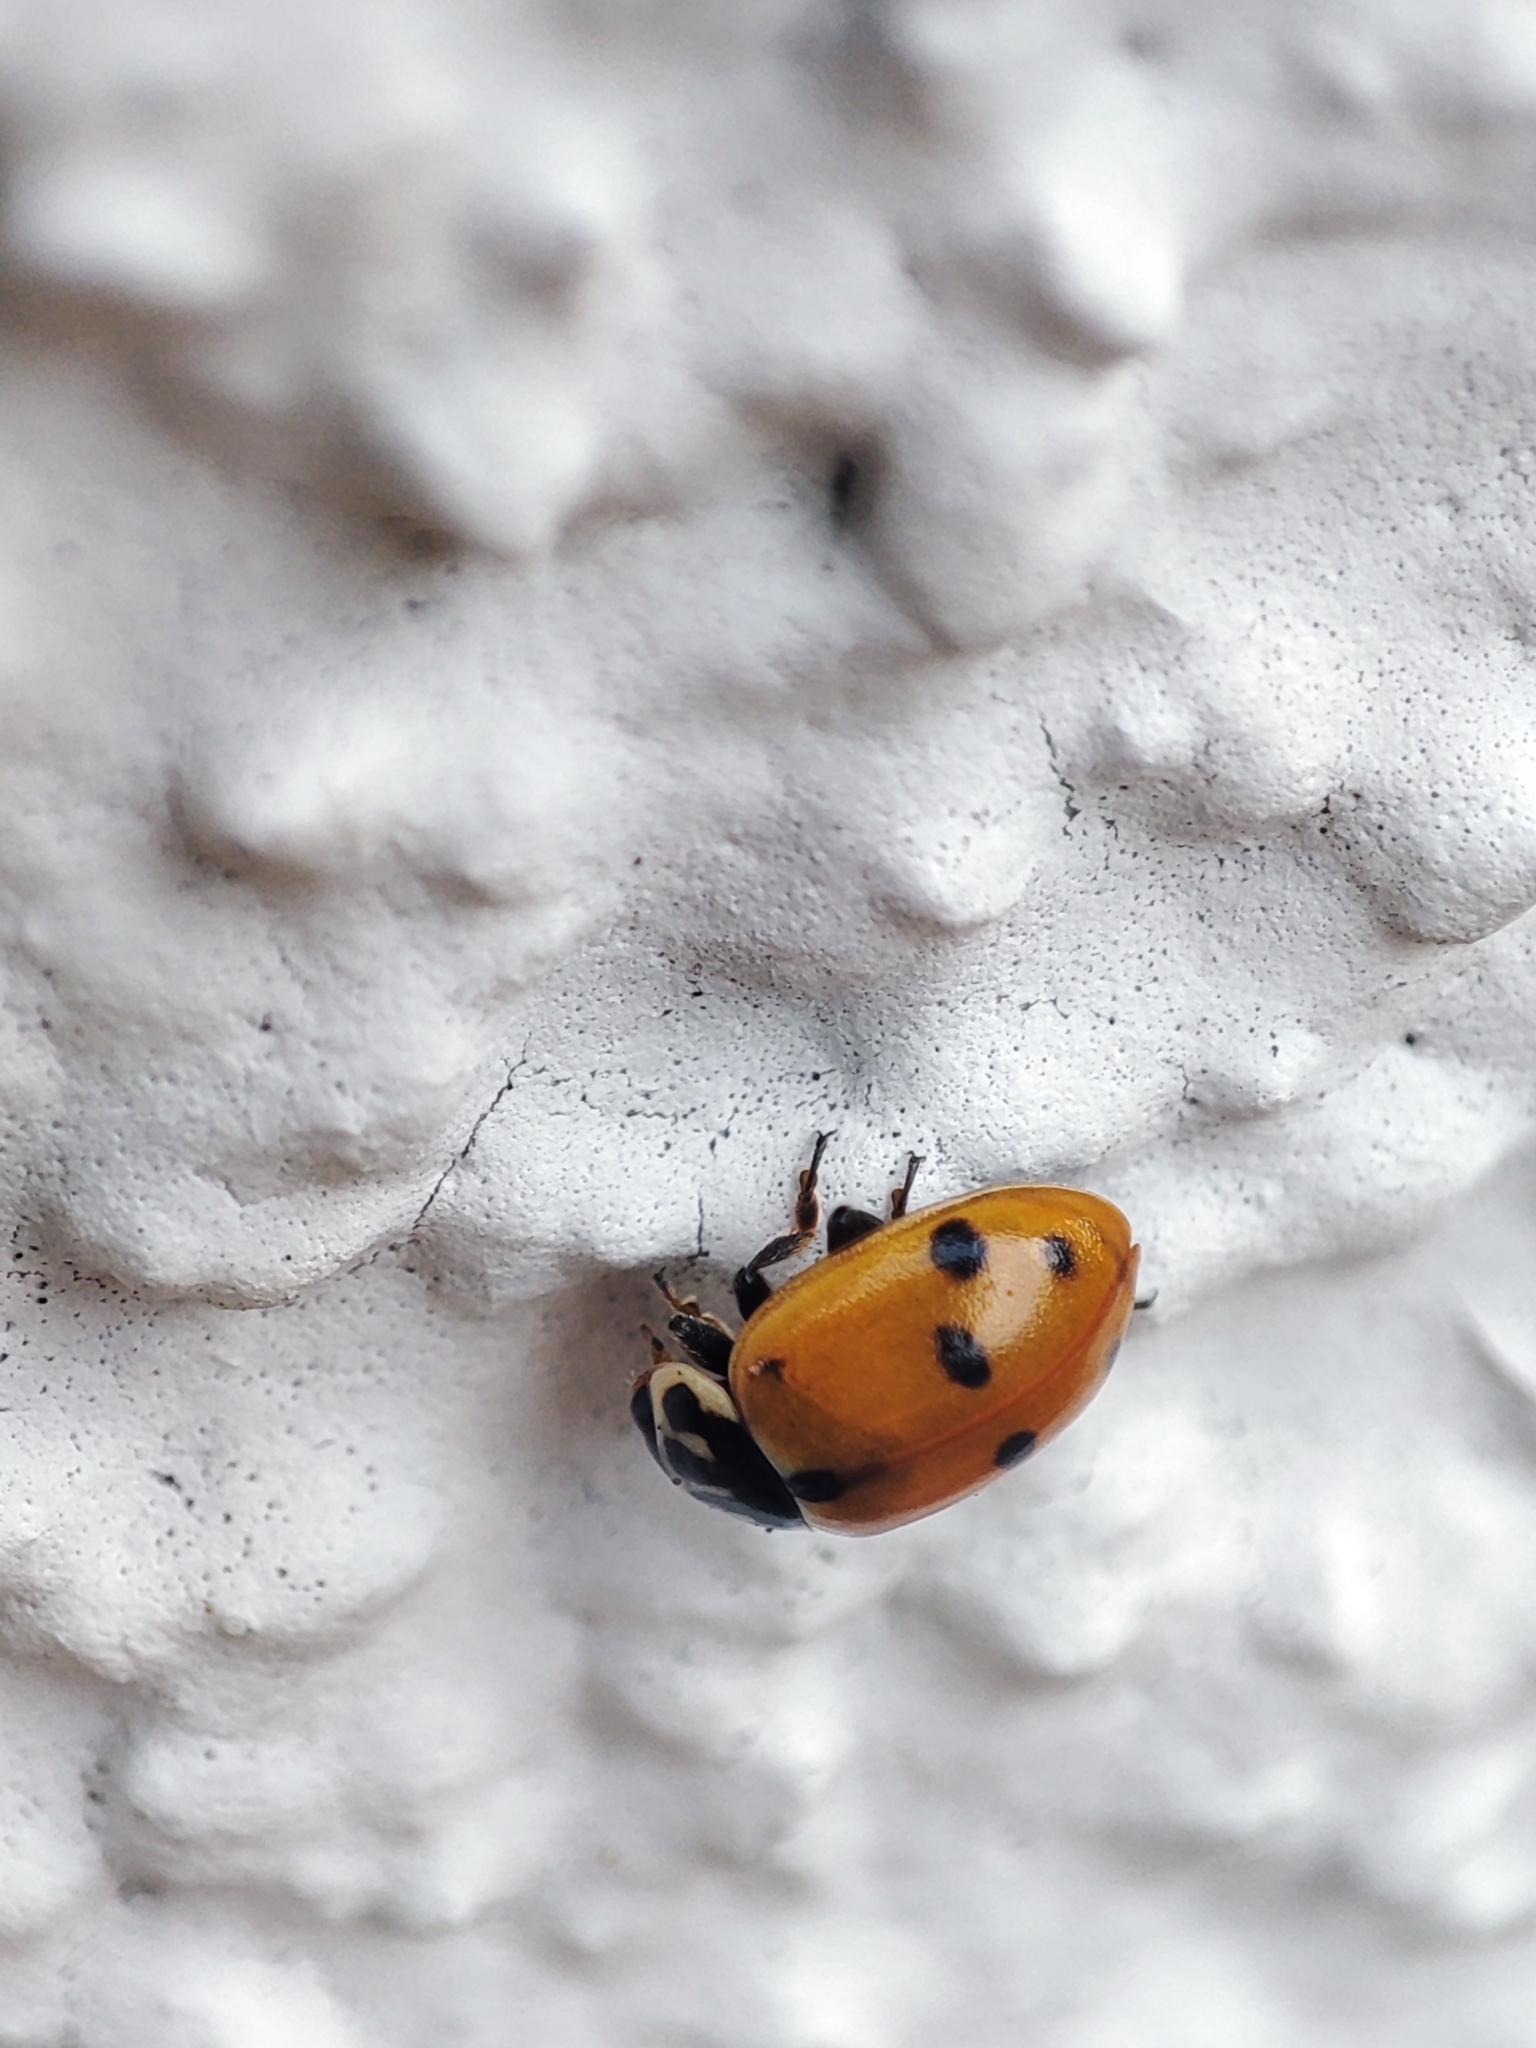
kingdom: Animalia
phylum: Arthropoda
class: Insecta
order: Coleoptera
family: Coccinellidae
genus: Hippodamia
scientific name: Hippodamia variegata
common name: Ladybird beetle
